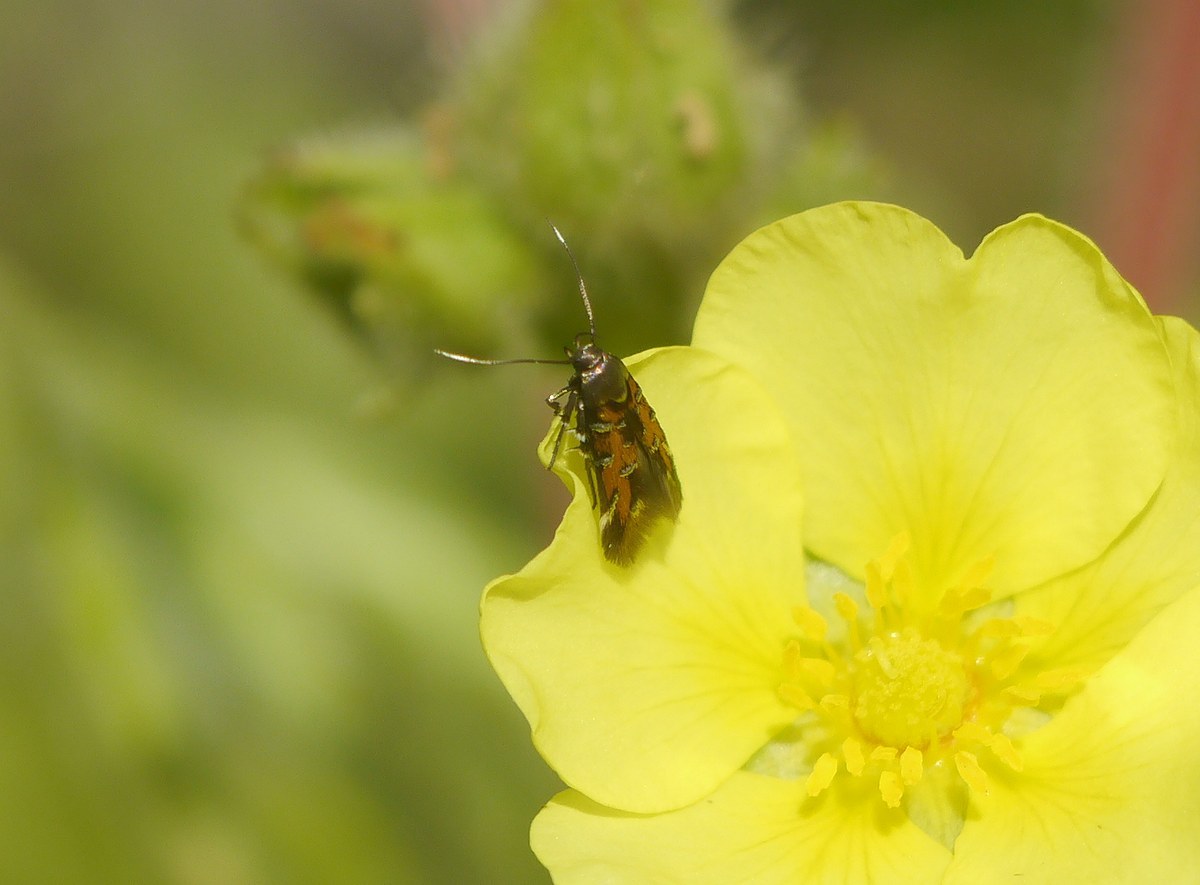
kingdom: Animalia
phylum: Arthropoda
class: Insecta
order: Lepidoptera
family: Cosmopterigidae
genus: Pancalia
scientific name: Pancalia leuwenhoekella
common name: Violet cosmet
